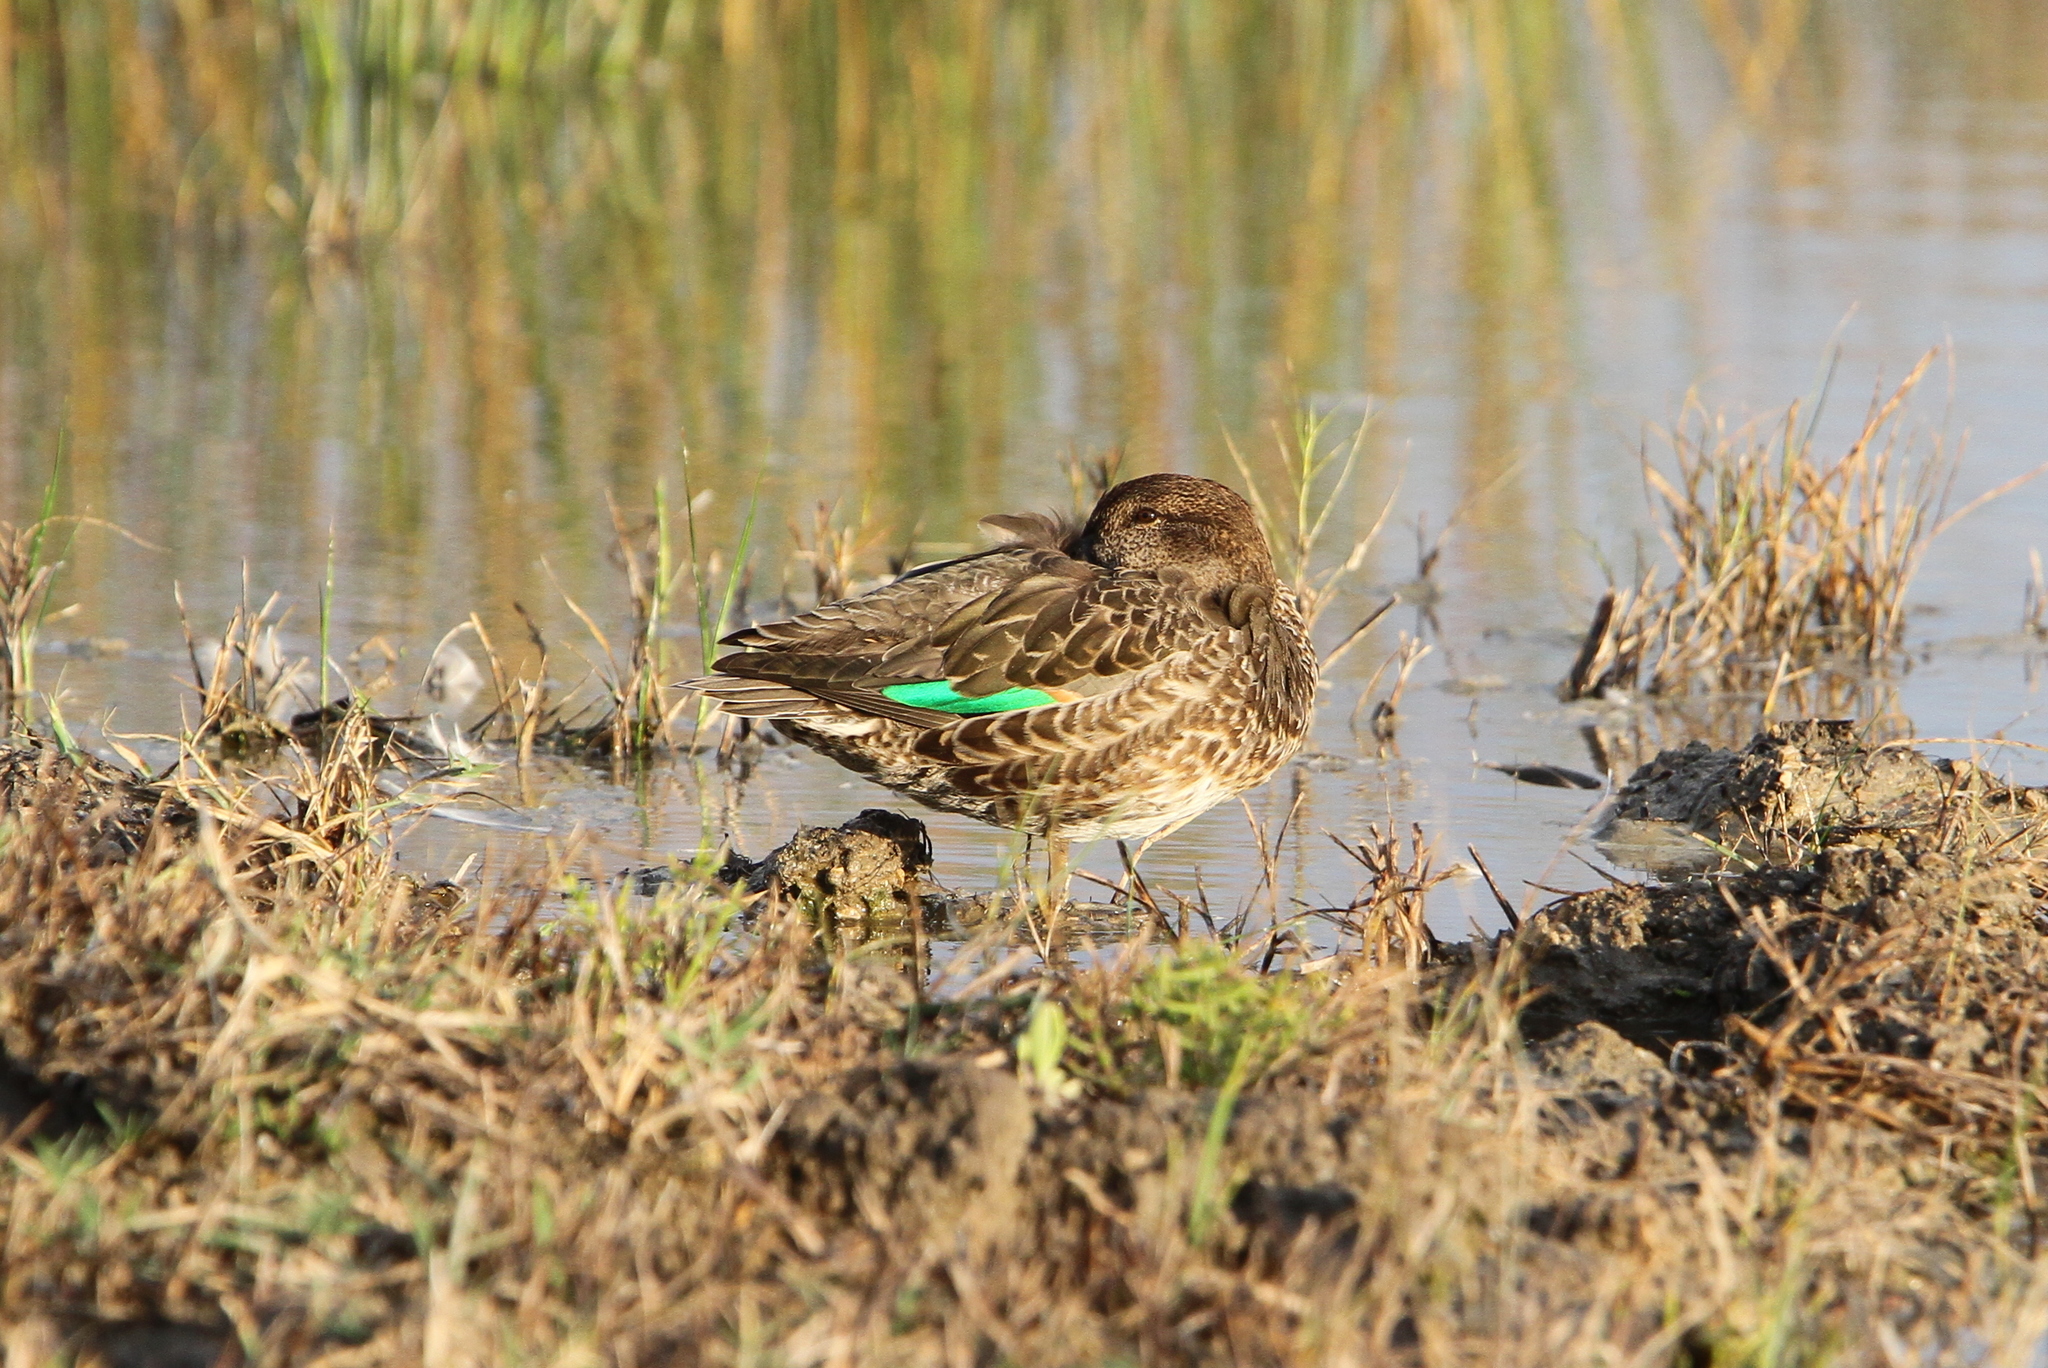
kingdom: Animalia
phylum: Chordata
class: Aves
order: Anseriformes
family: Anatidae
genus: Anas
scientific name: Anas crecca
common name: Eurasian teal
